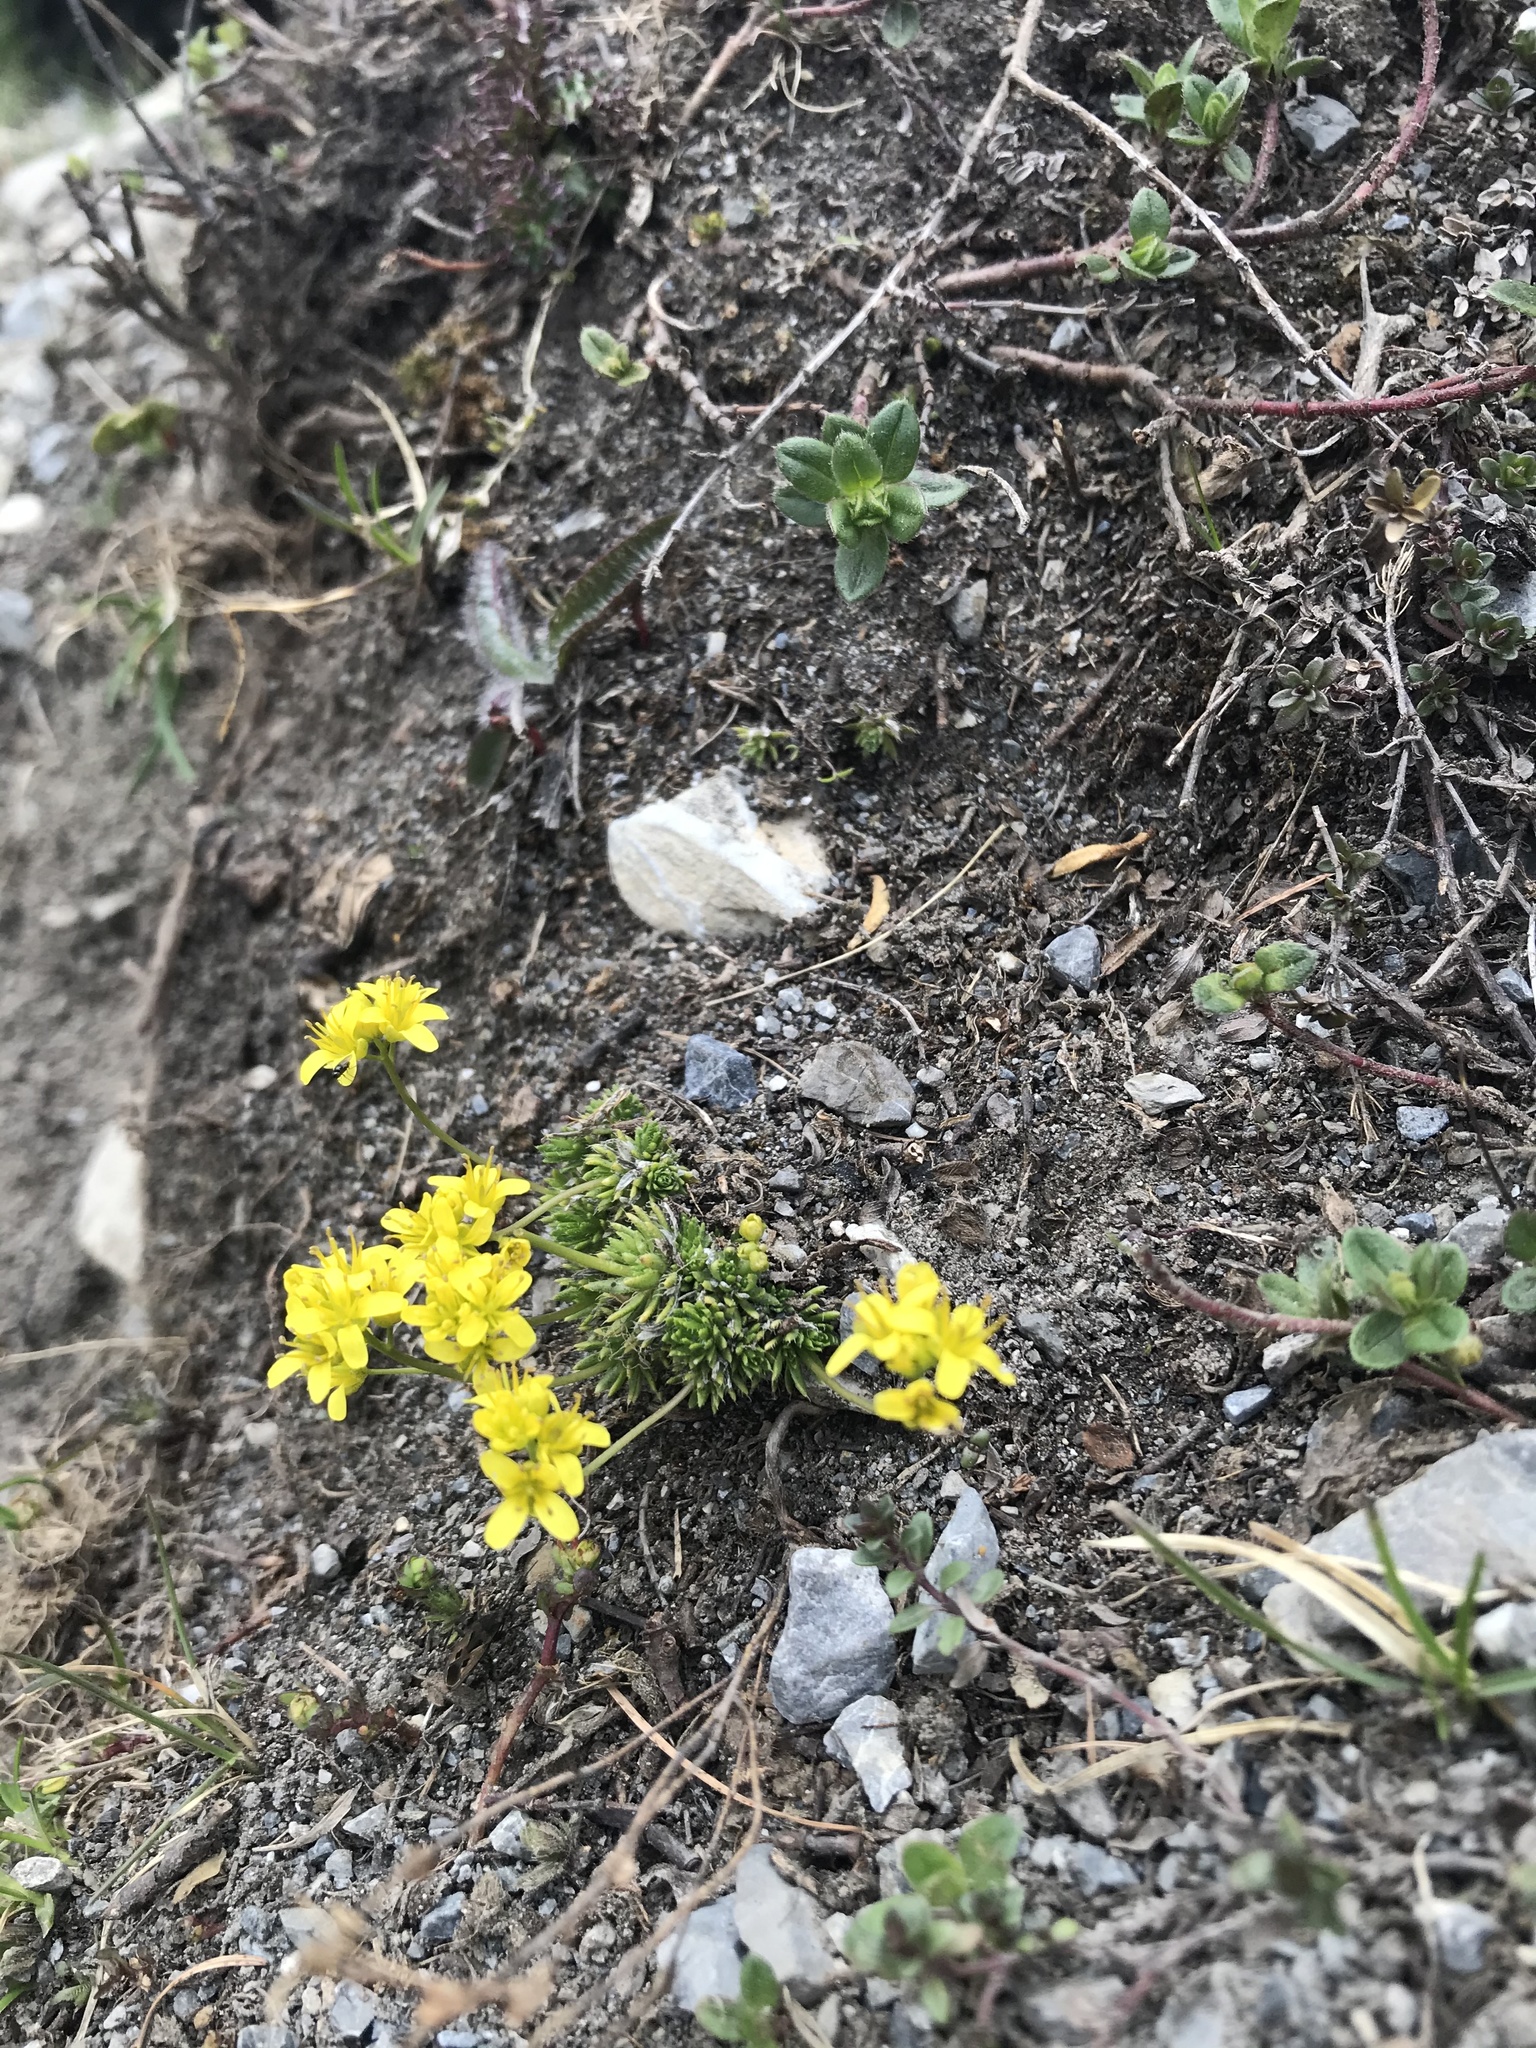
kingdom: Plantae
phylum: Tracheophyta
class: Magnoliopsida
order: Brassicales
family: Brassicaceae
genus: Draba
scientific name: Draba aizoides
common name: Yellow whitlowgrass
